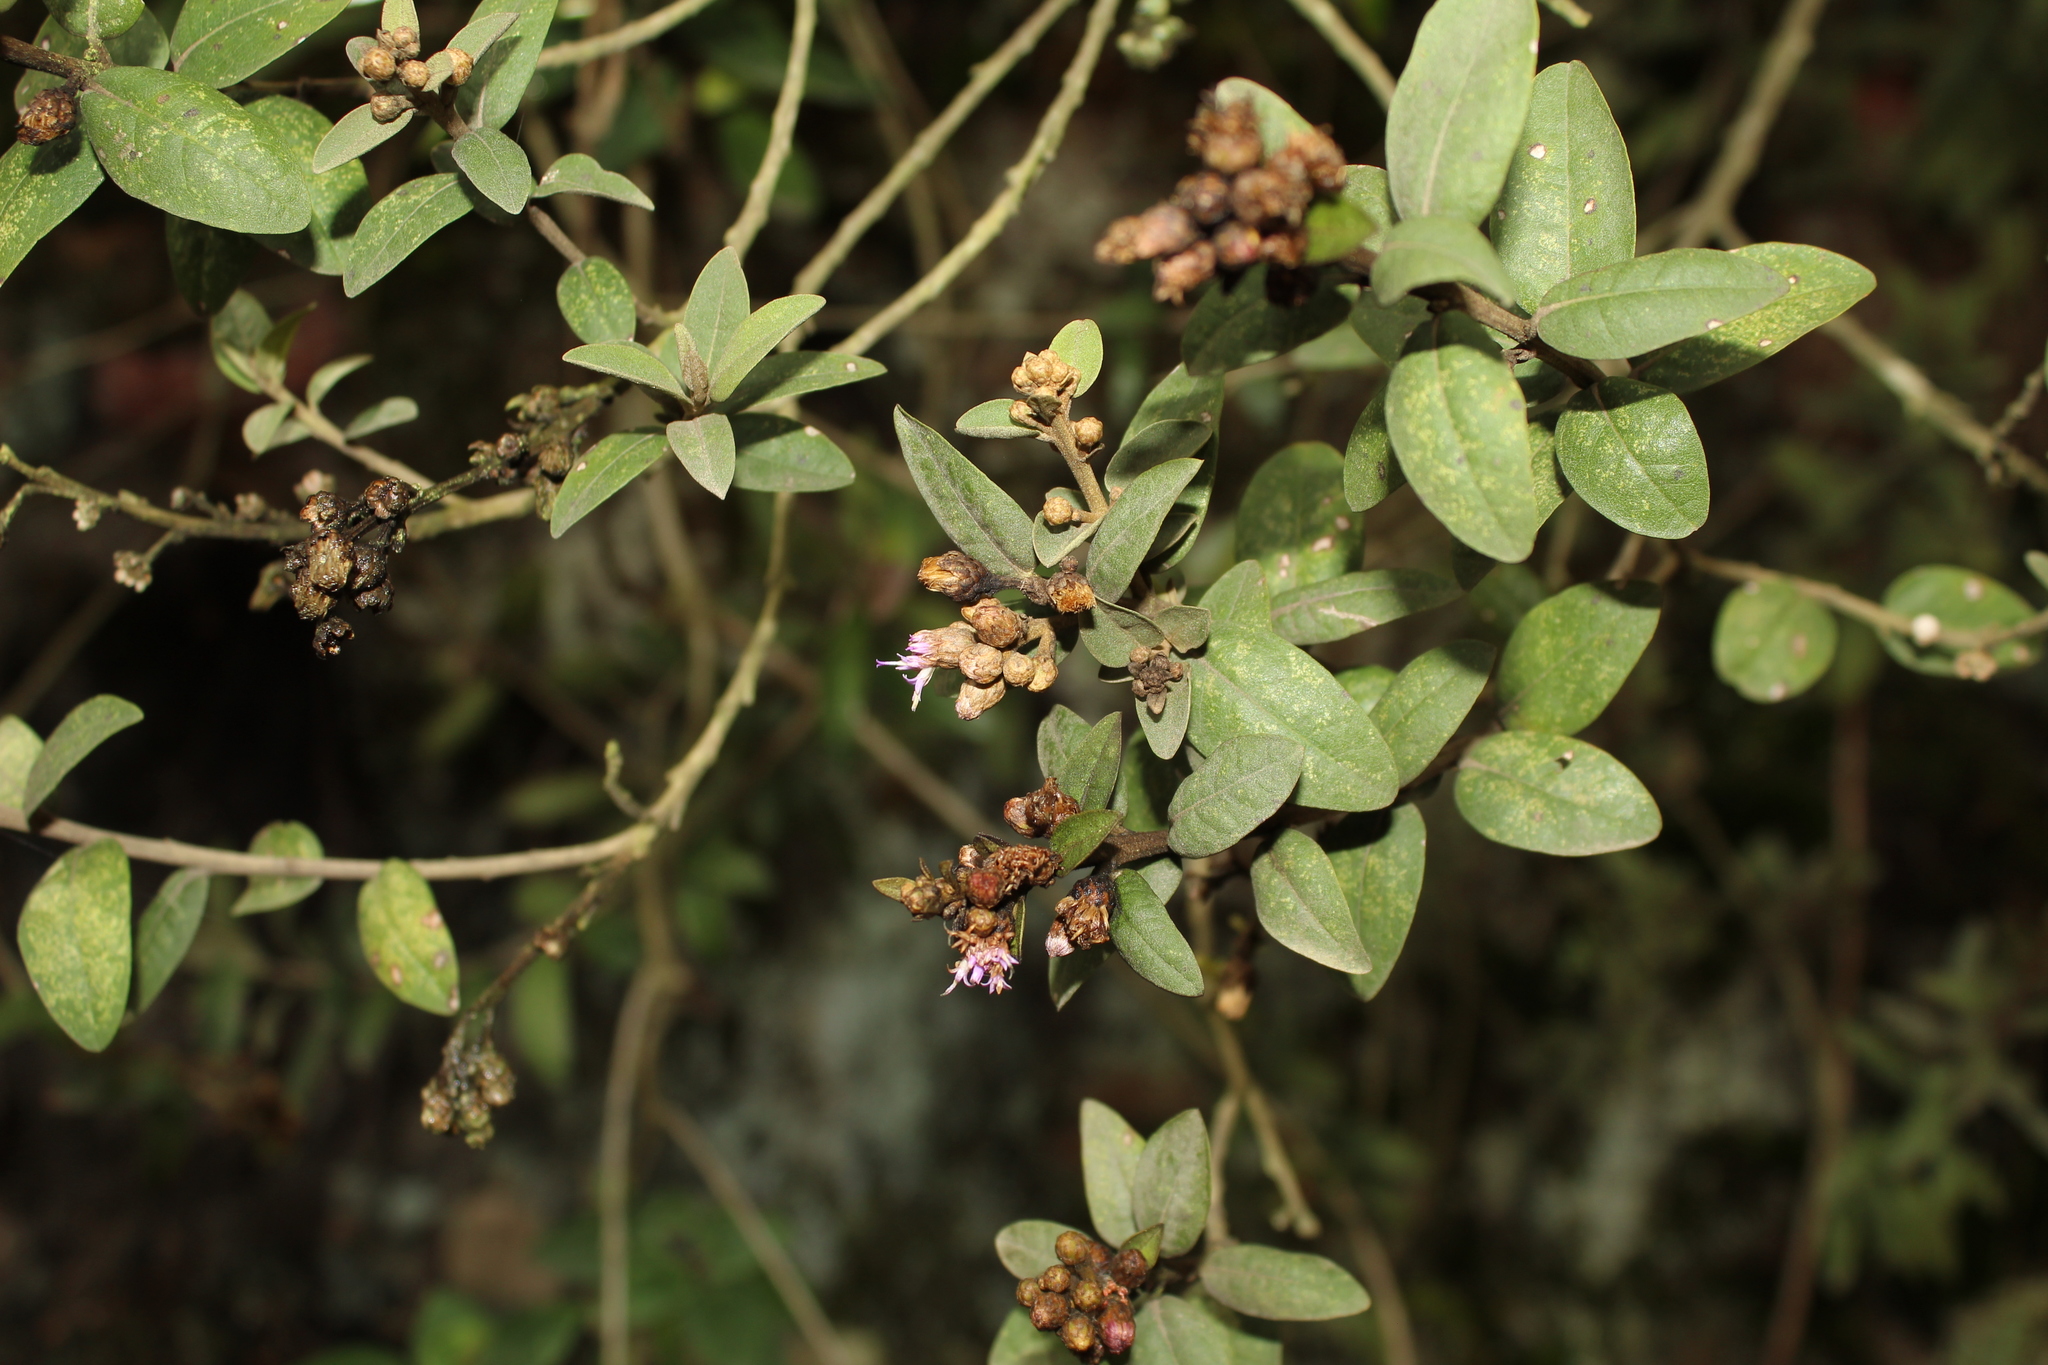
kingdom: Plantae
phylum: Tracheophyta
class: Magnoliopsida
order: Asterales
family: Asteraceae
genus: Lepidaploa
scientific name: Lepidaploa karstenii
